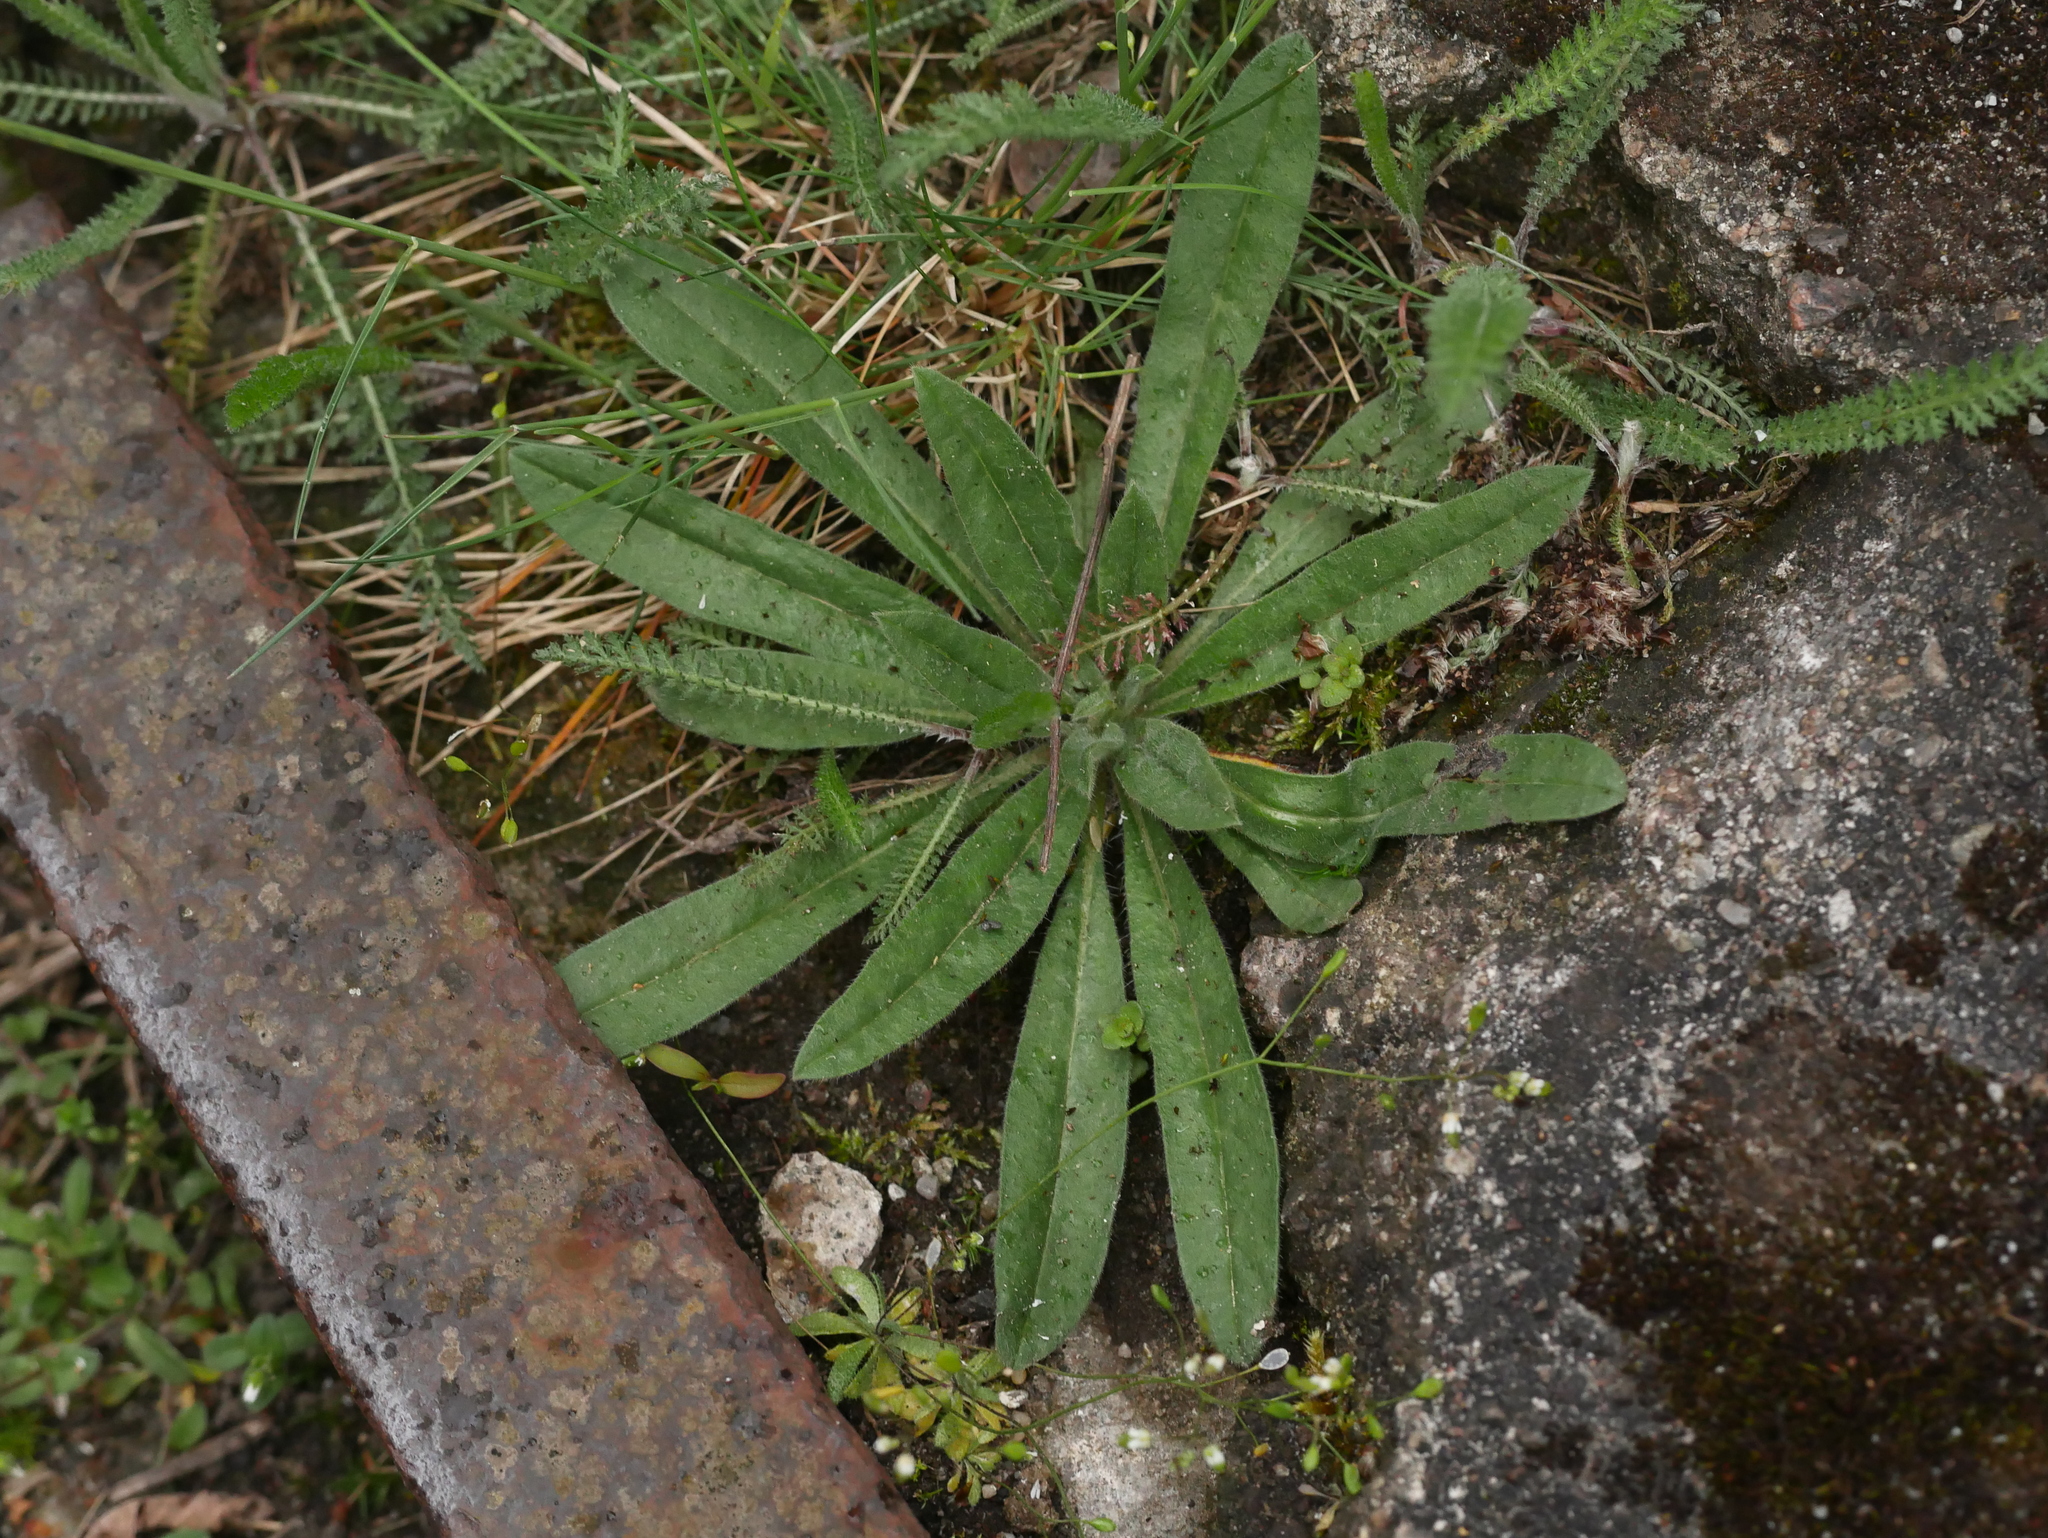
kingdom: Plantae
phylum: Tracheophyta
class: Magnoliopsida
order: Boraginales
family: Boraginaceae
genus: Echium
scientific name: Echium vulgare
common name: Common viper's bugloss
